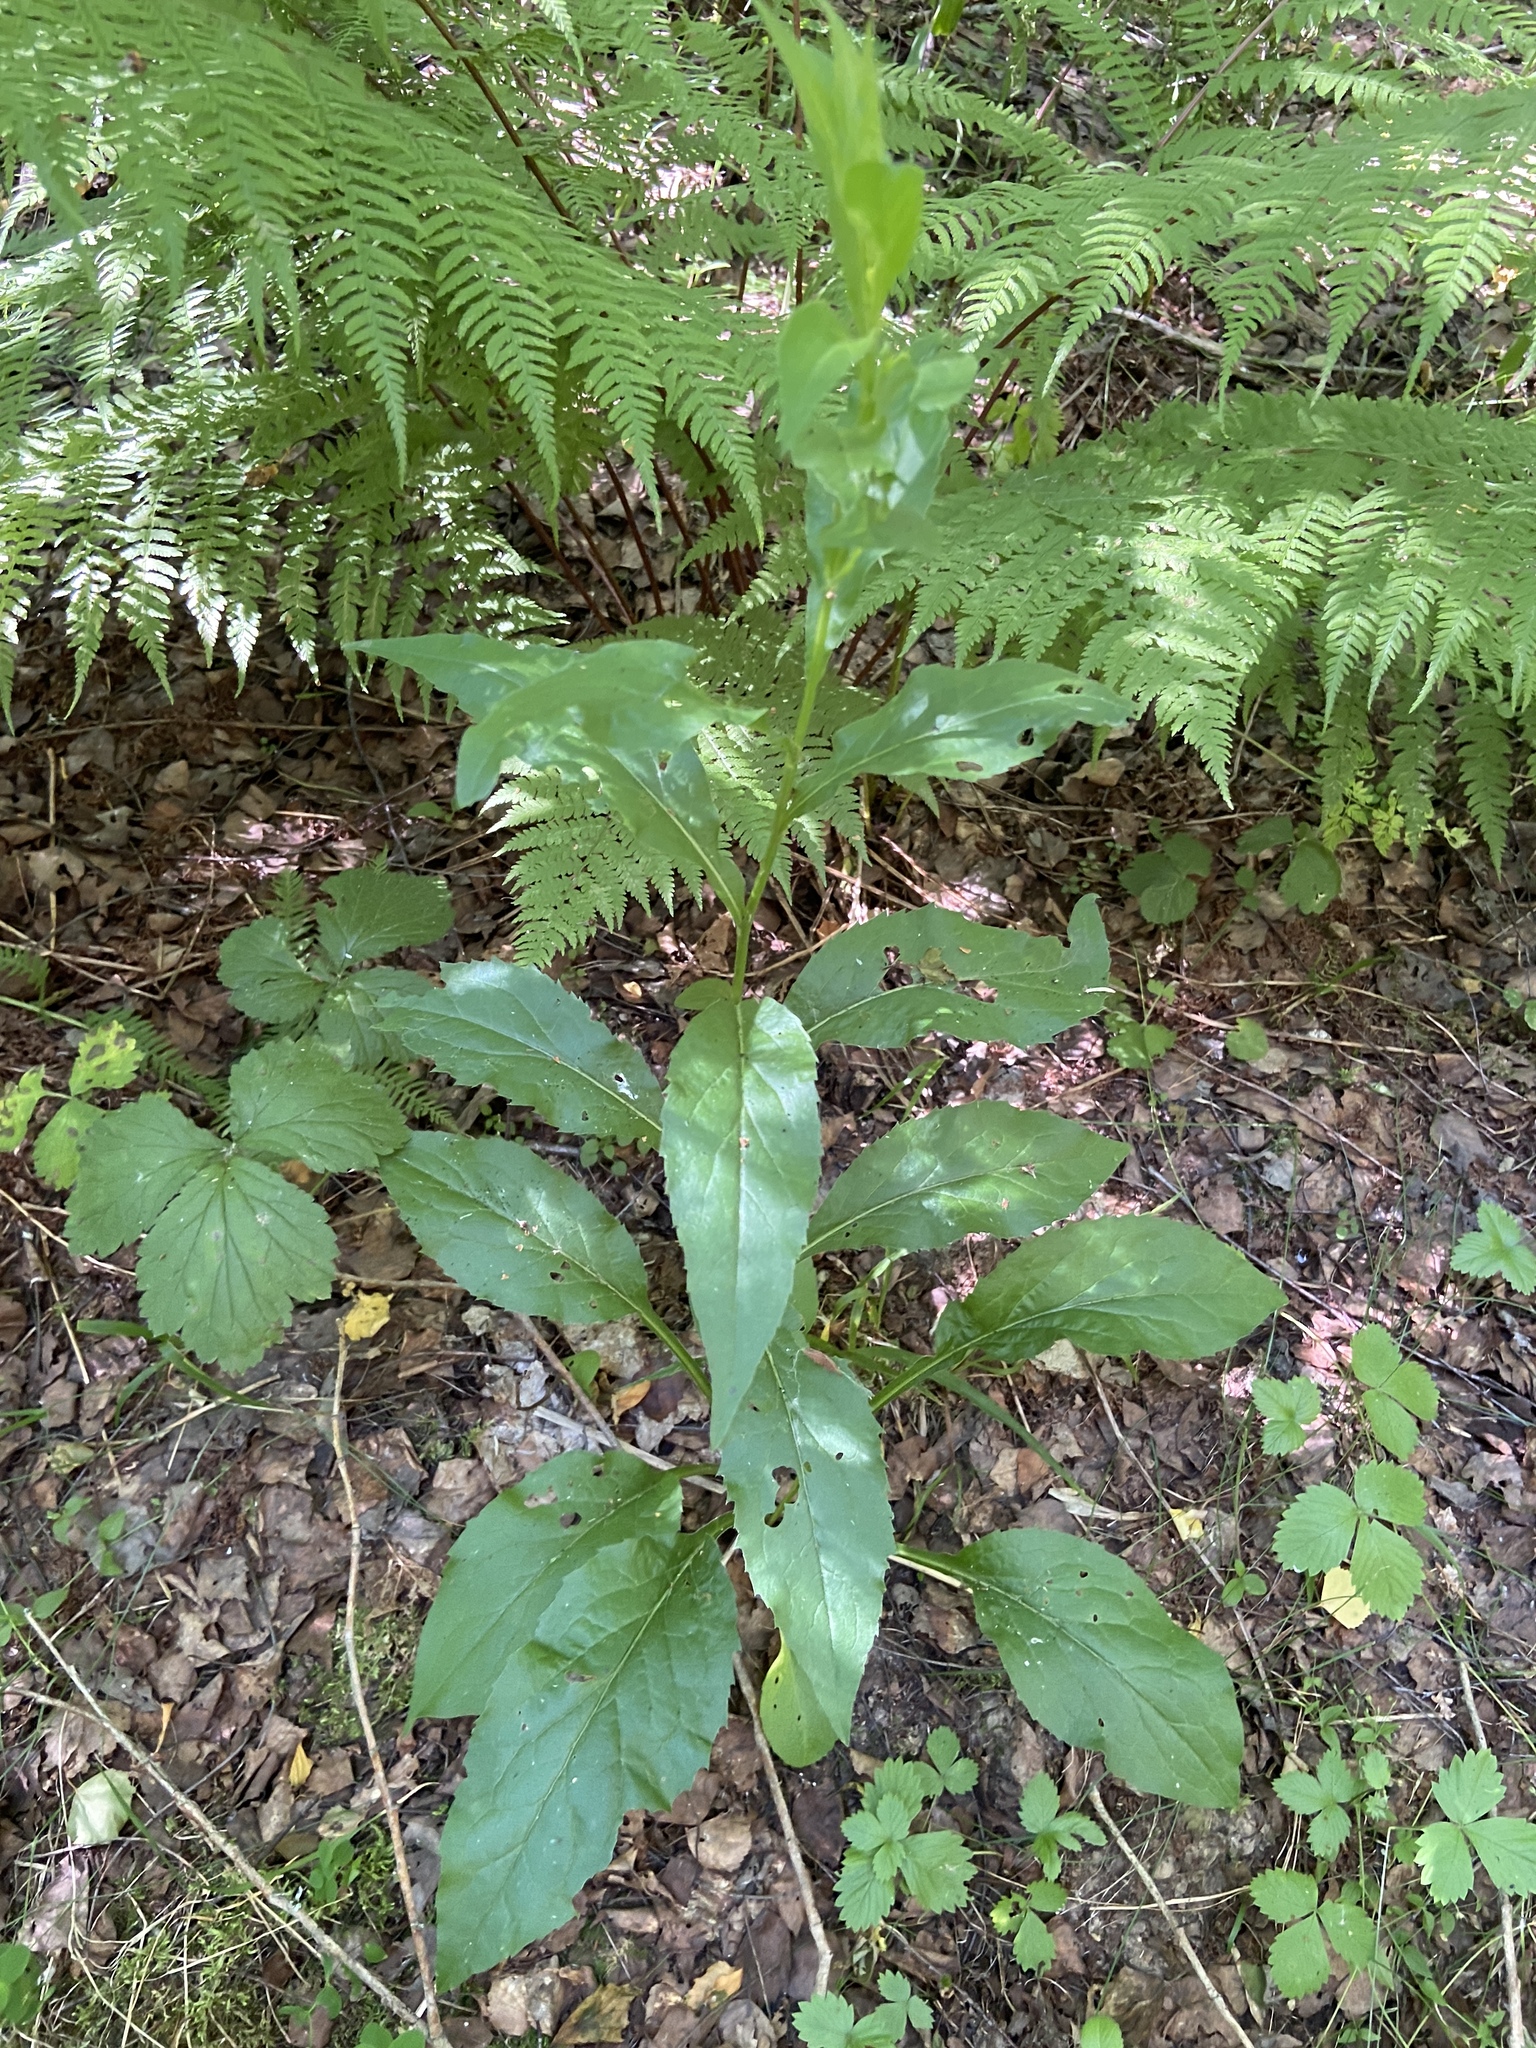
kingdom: Plantae
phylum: Tracheophyta
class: Magnoliopsida
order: Asterales
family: Asteraceae
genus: Solidago
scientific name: Solidago virgaurea
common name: Goldenrod
